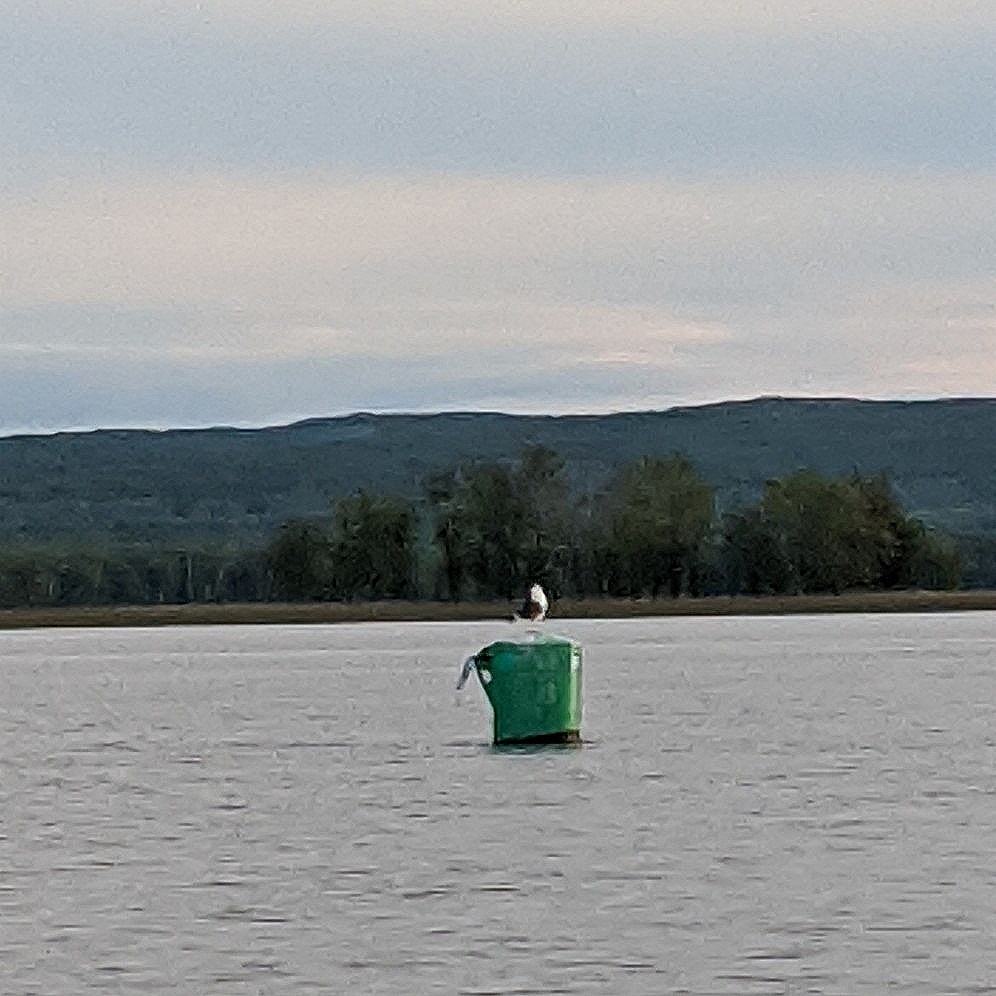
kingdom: Animalia
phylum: Chordata
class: Aves
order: Charadriiformes
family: Laridae
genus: Larus
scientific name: Larus marinus
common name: Great black-backed gull
